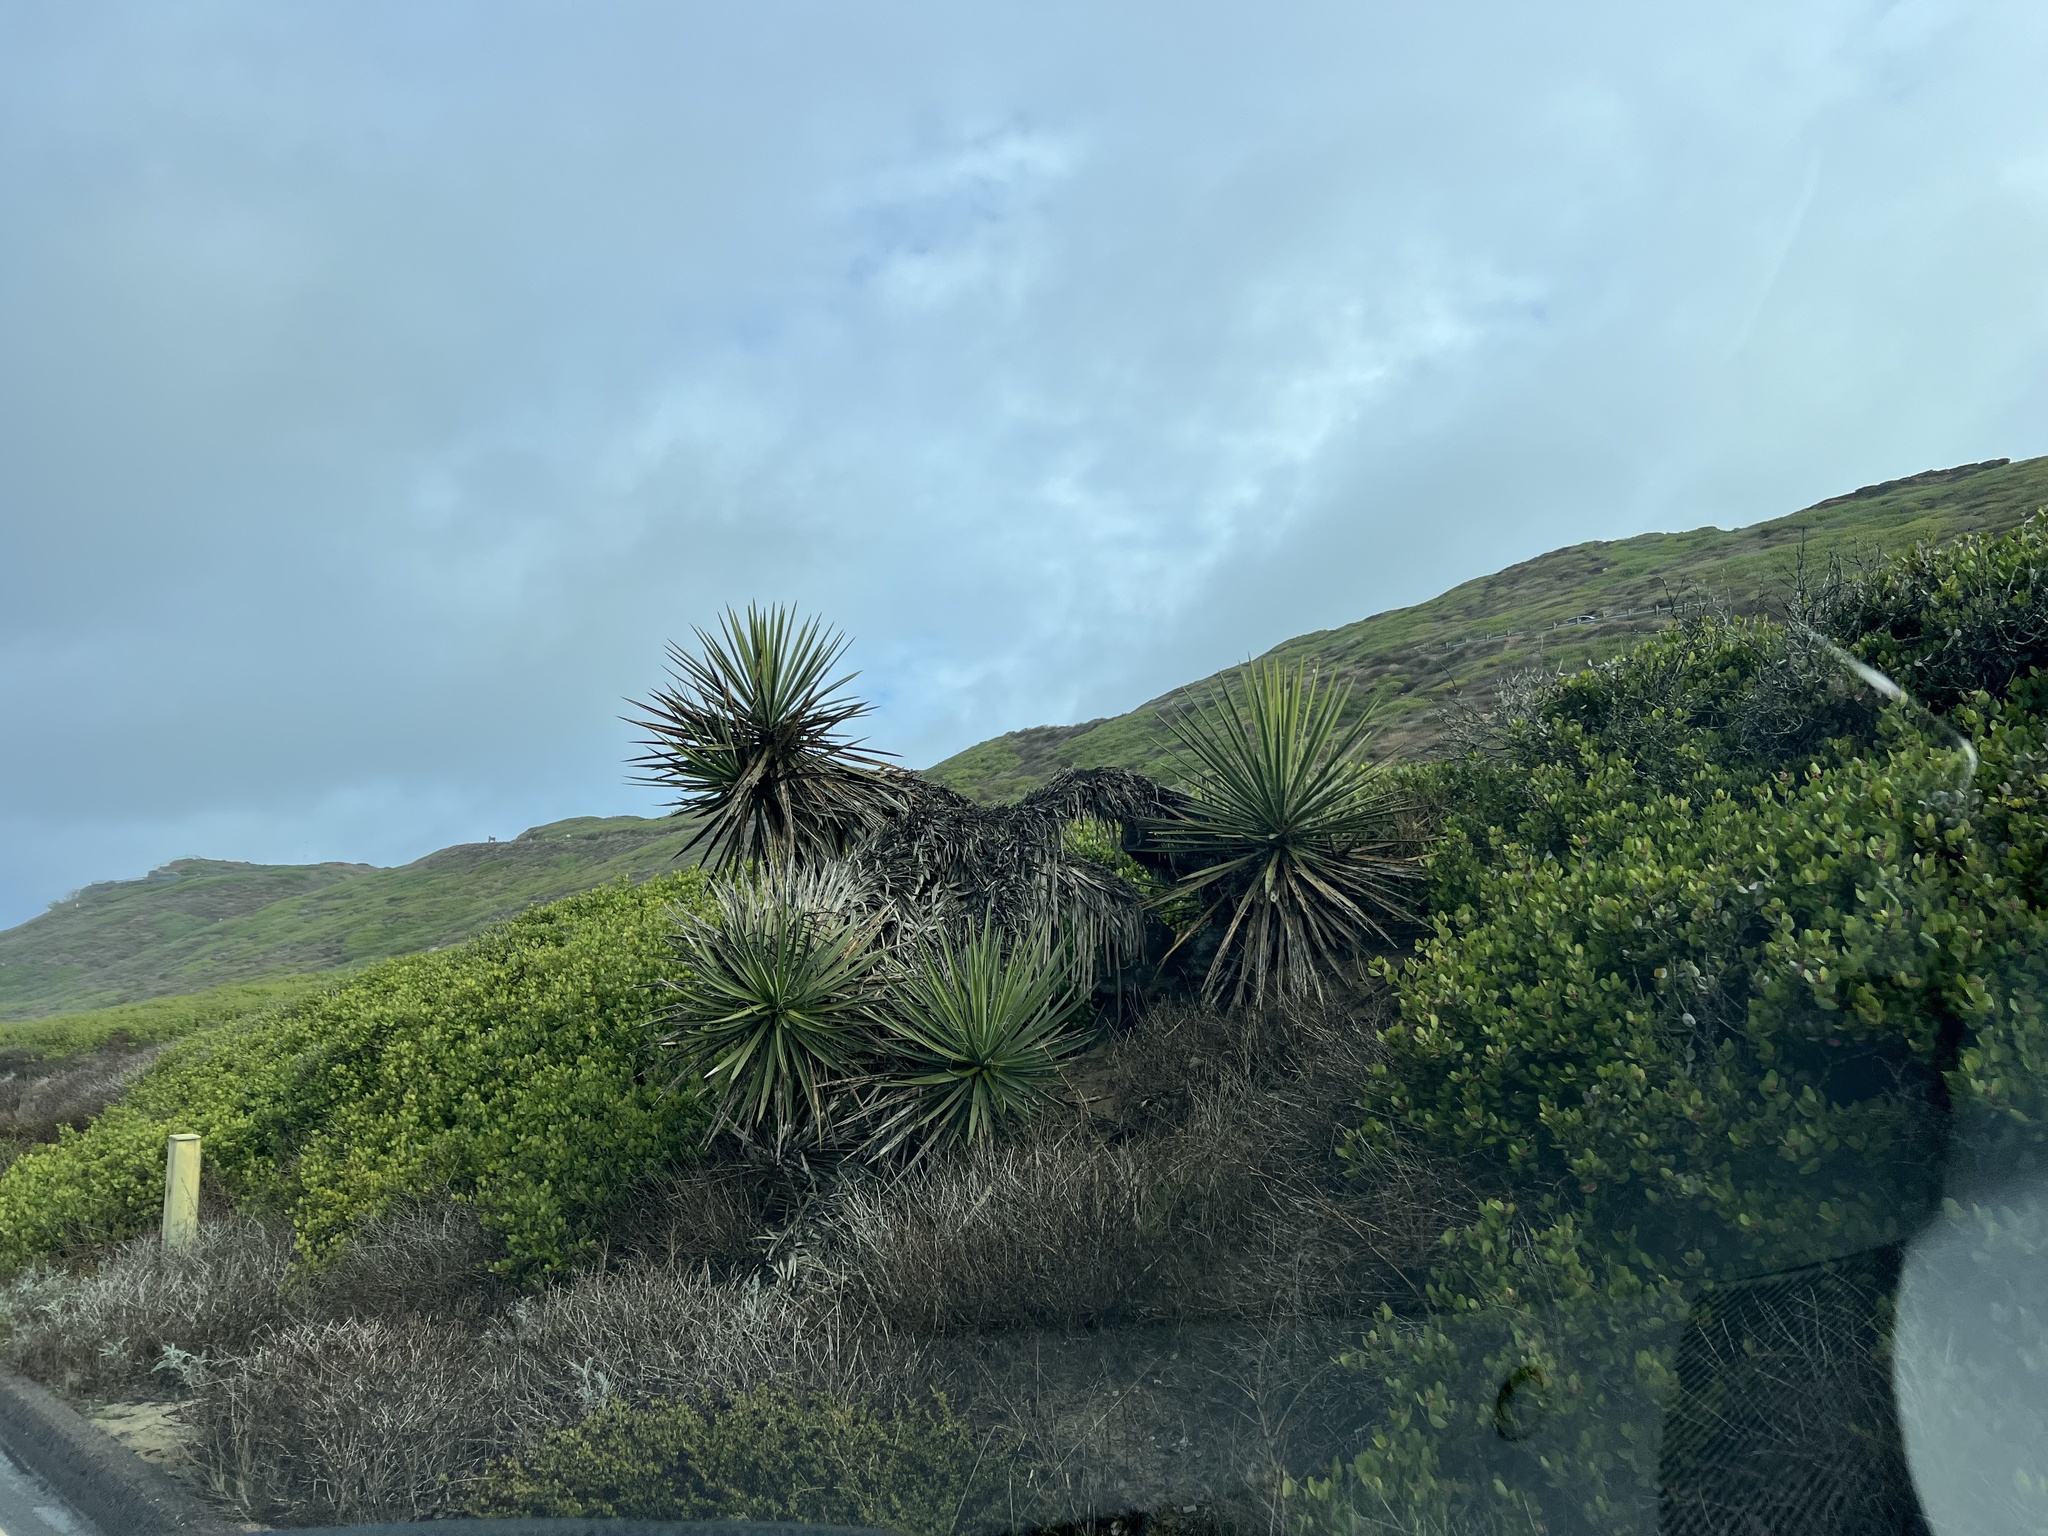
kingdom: Plantae
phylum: Tracheophyta
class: Liliopsida
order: Asparagales
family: Asparagaceae
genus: Yucca
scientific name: Yucca schidigera
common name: Mojave yucca
